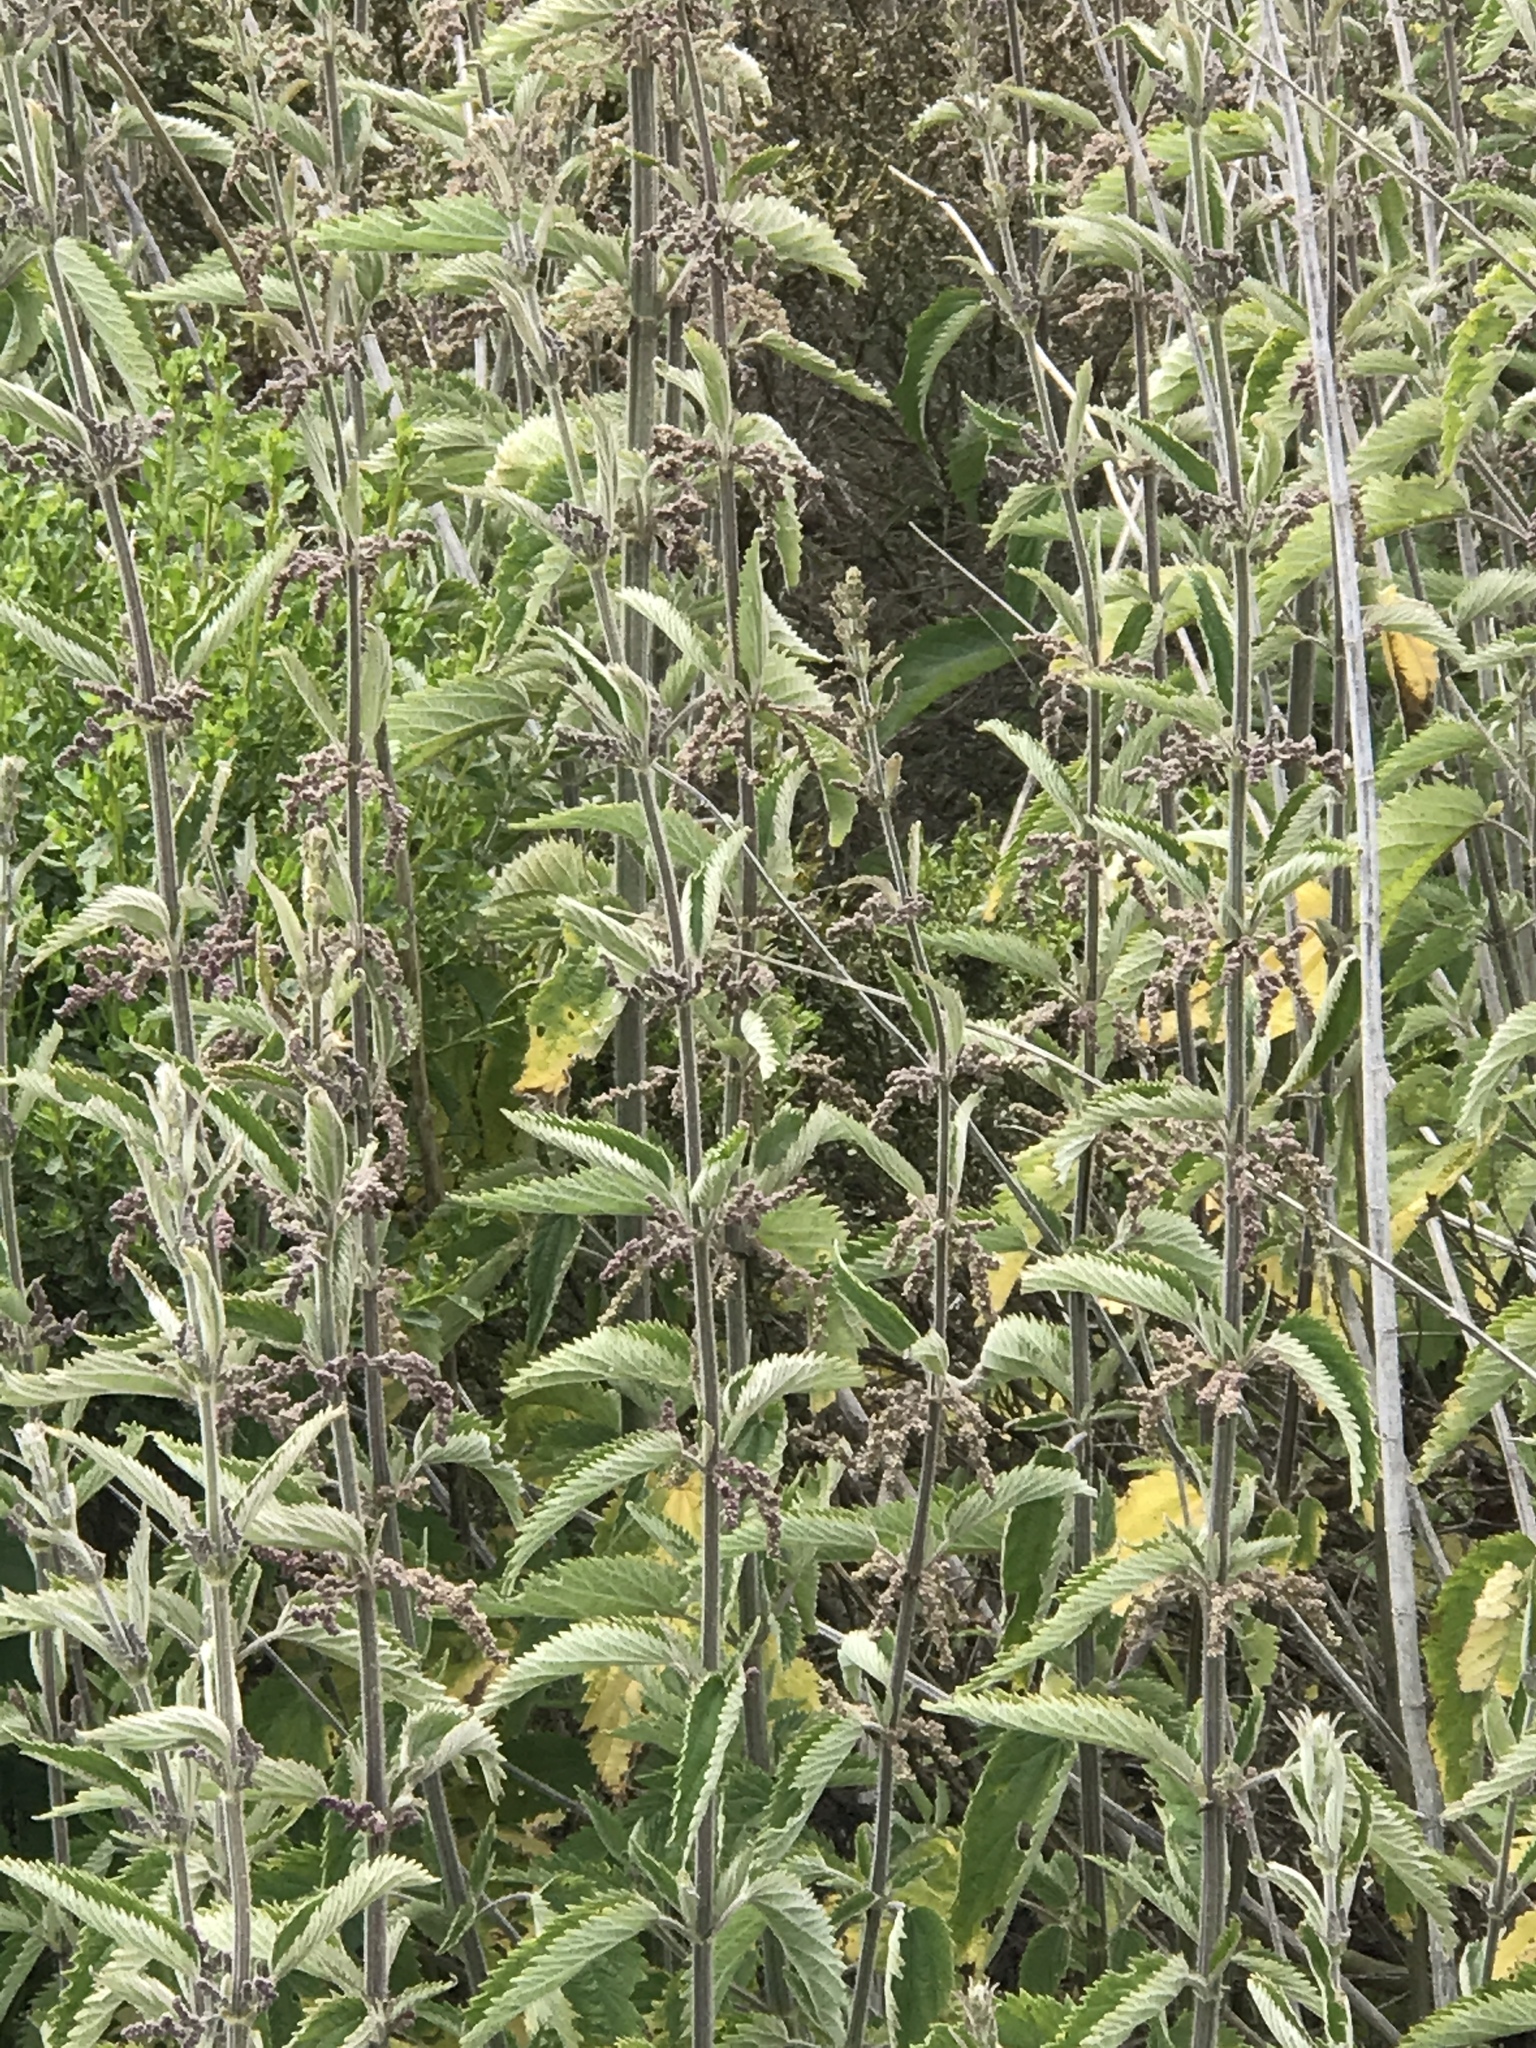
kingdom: Plantae
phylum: Tracheophyta
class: Magnoliopsida
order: Rosales
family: Urticaceae
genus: Urtica
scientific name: Urtica dioica
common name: Common nettle
